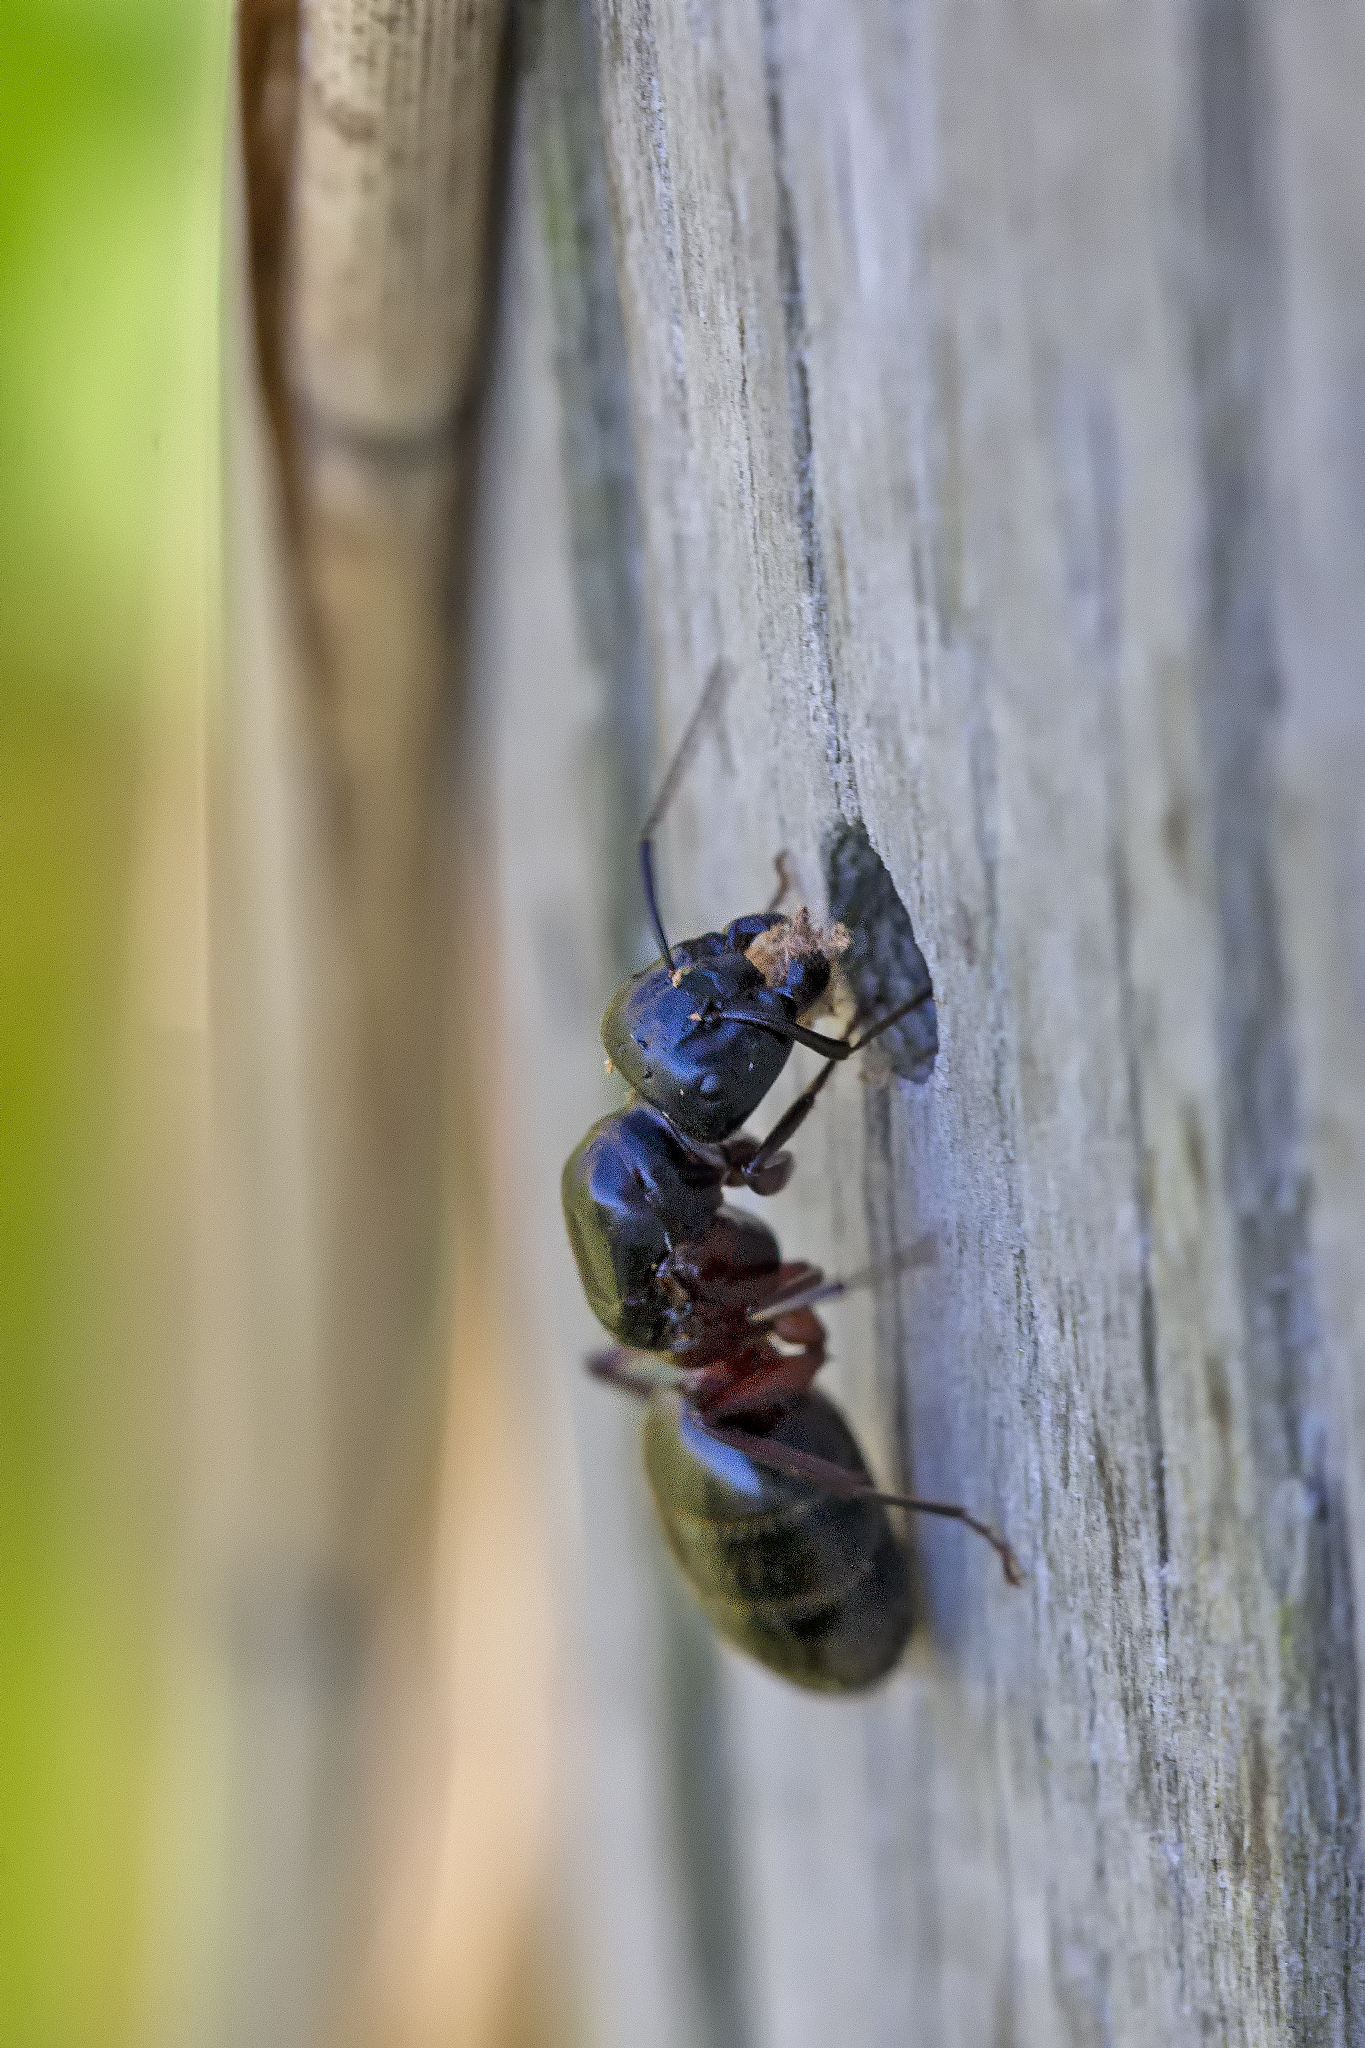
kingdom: Animalia
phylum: Arthropoda
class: Insecta
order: Hymenoptera
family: Formicidae
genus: Camponotus
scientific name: Camponotus herculeanus
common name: Hercules ant
